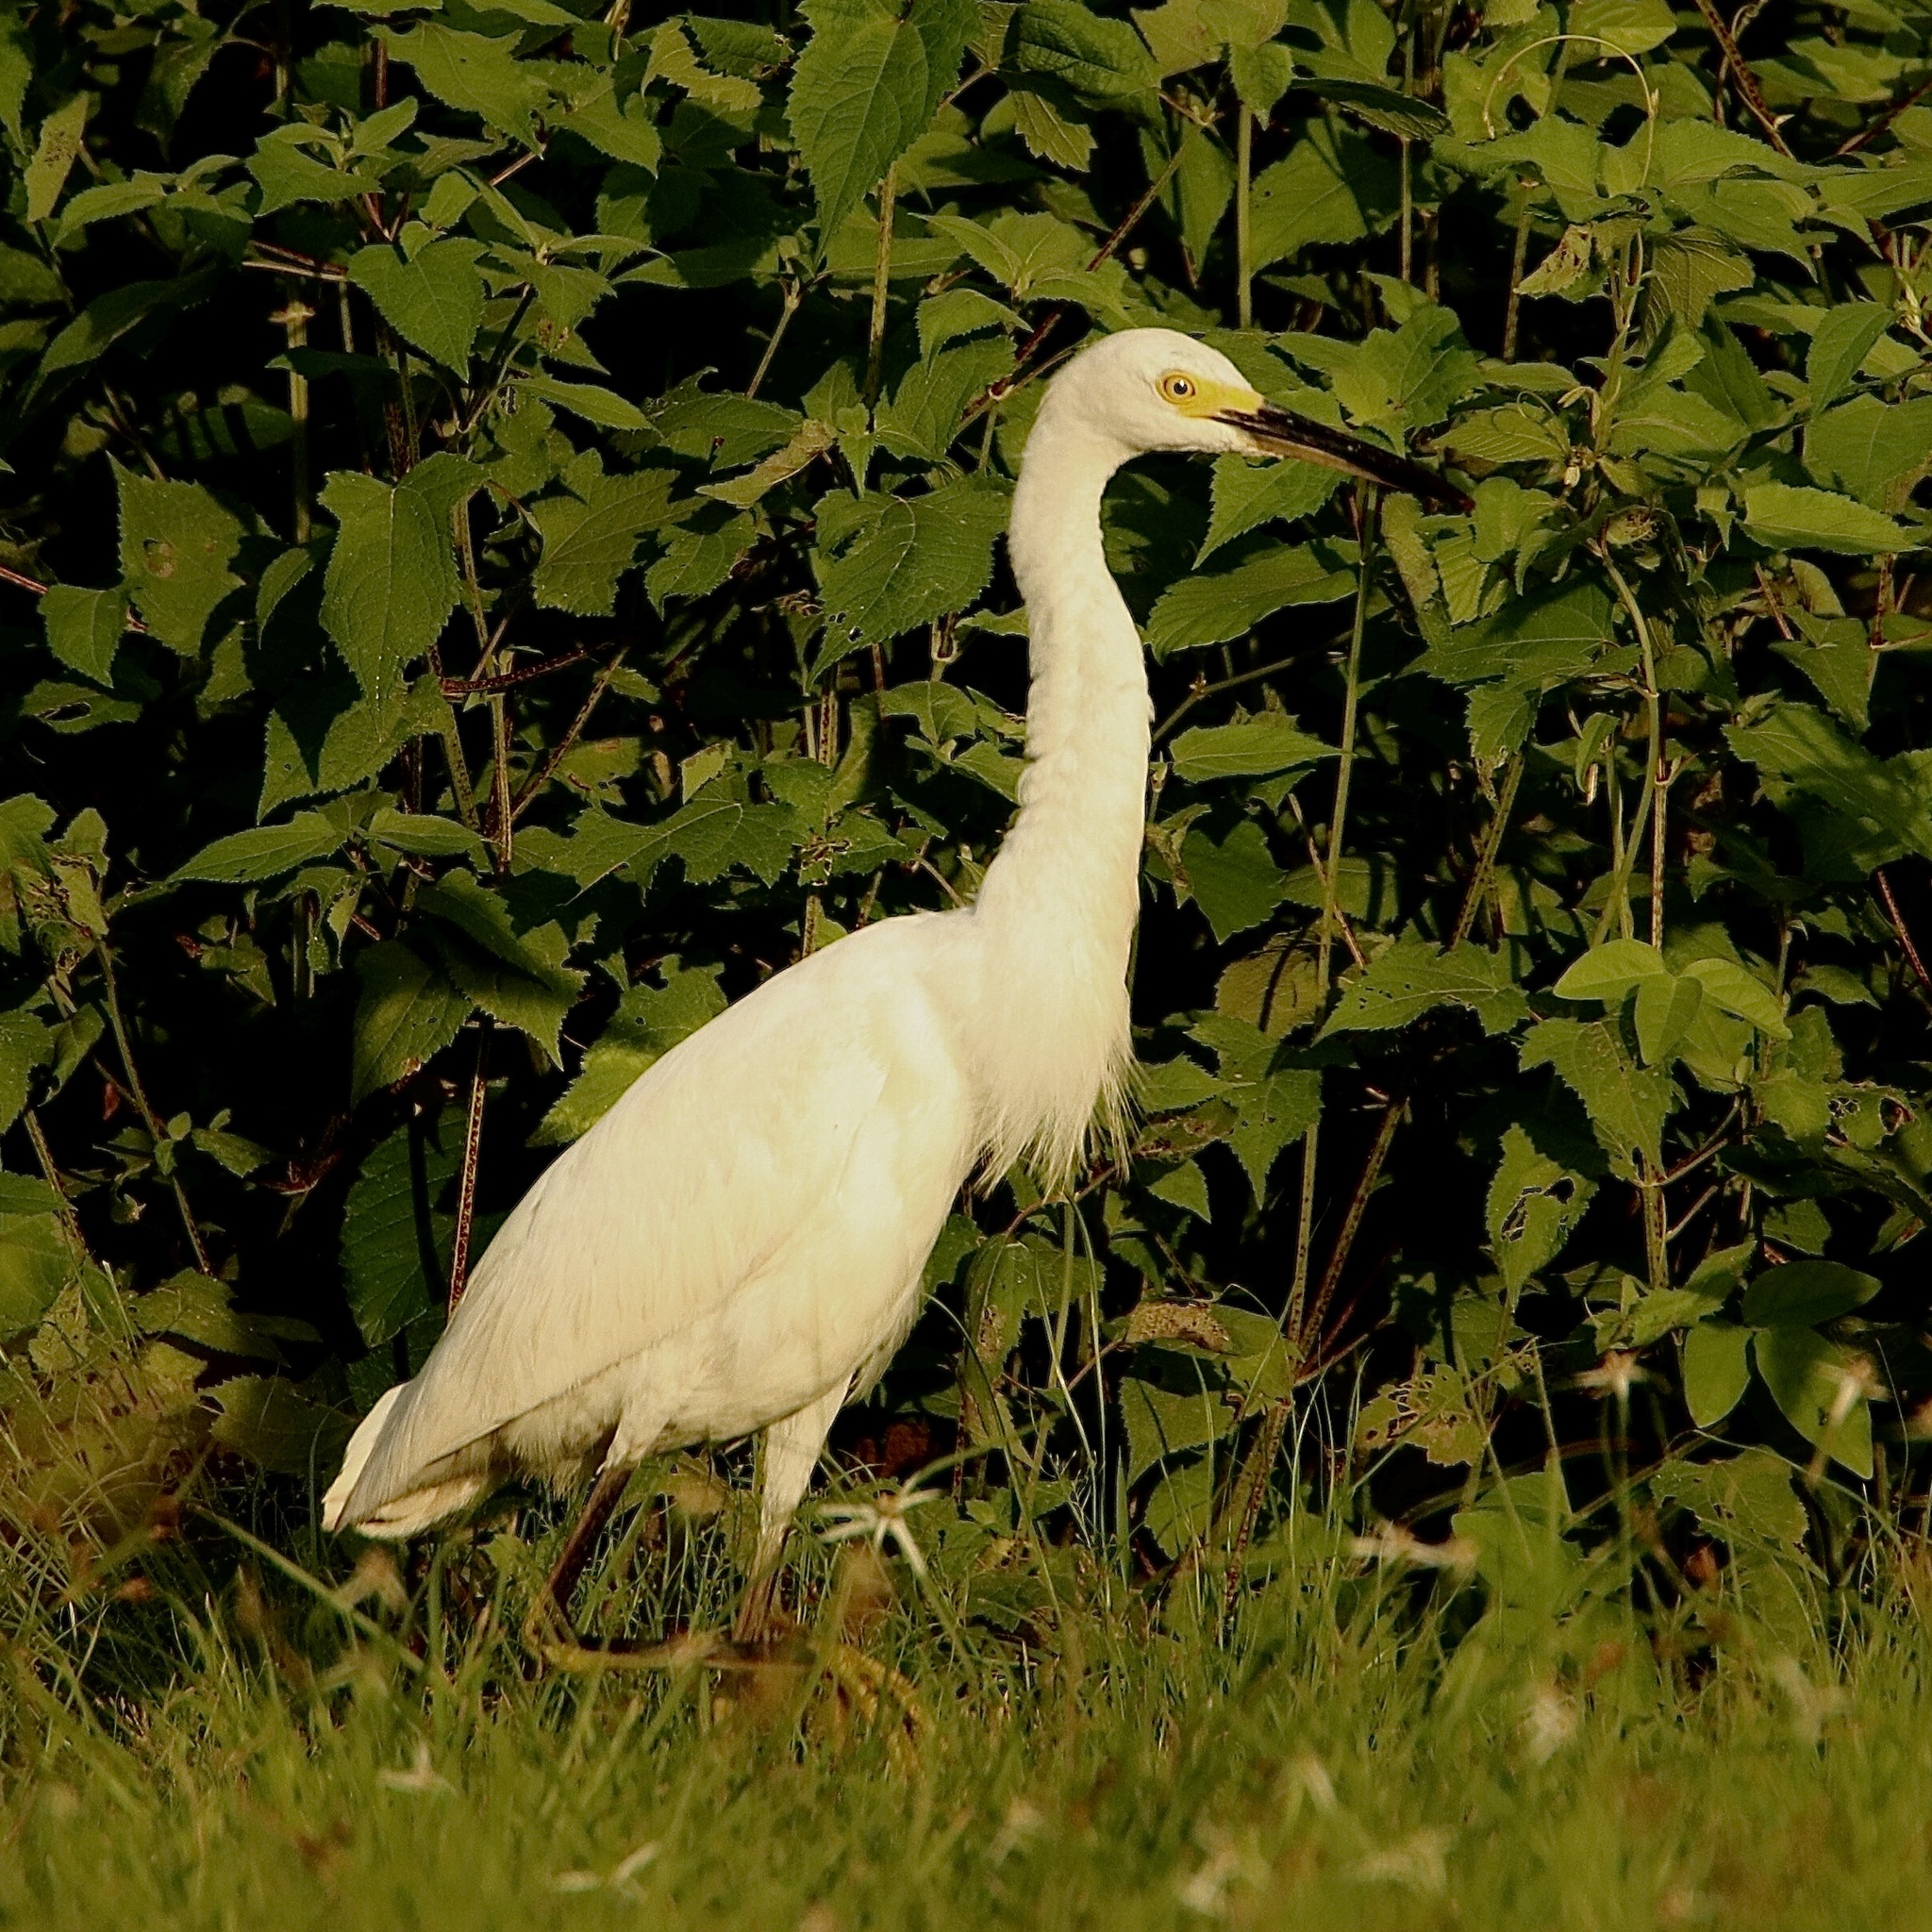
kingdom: Animalia
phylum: Chordata
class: Aves
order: Pelecaniformes
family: Ardeidae
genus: Egretta
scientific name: Egretta thula
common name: Snowy egret
